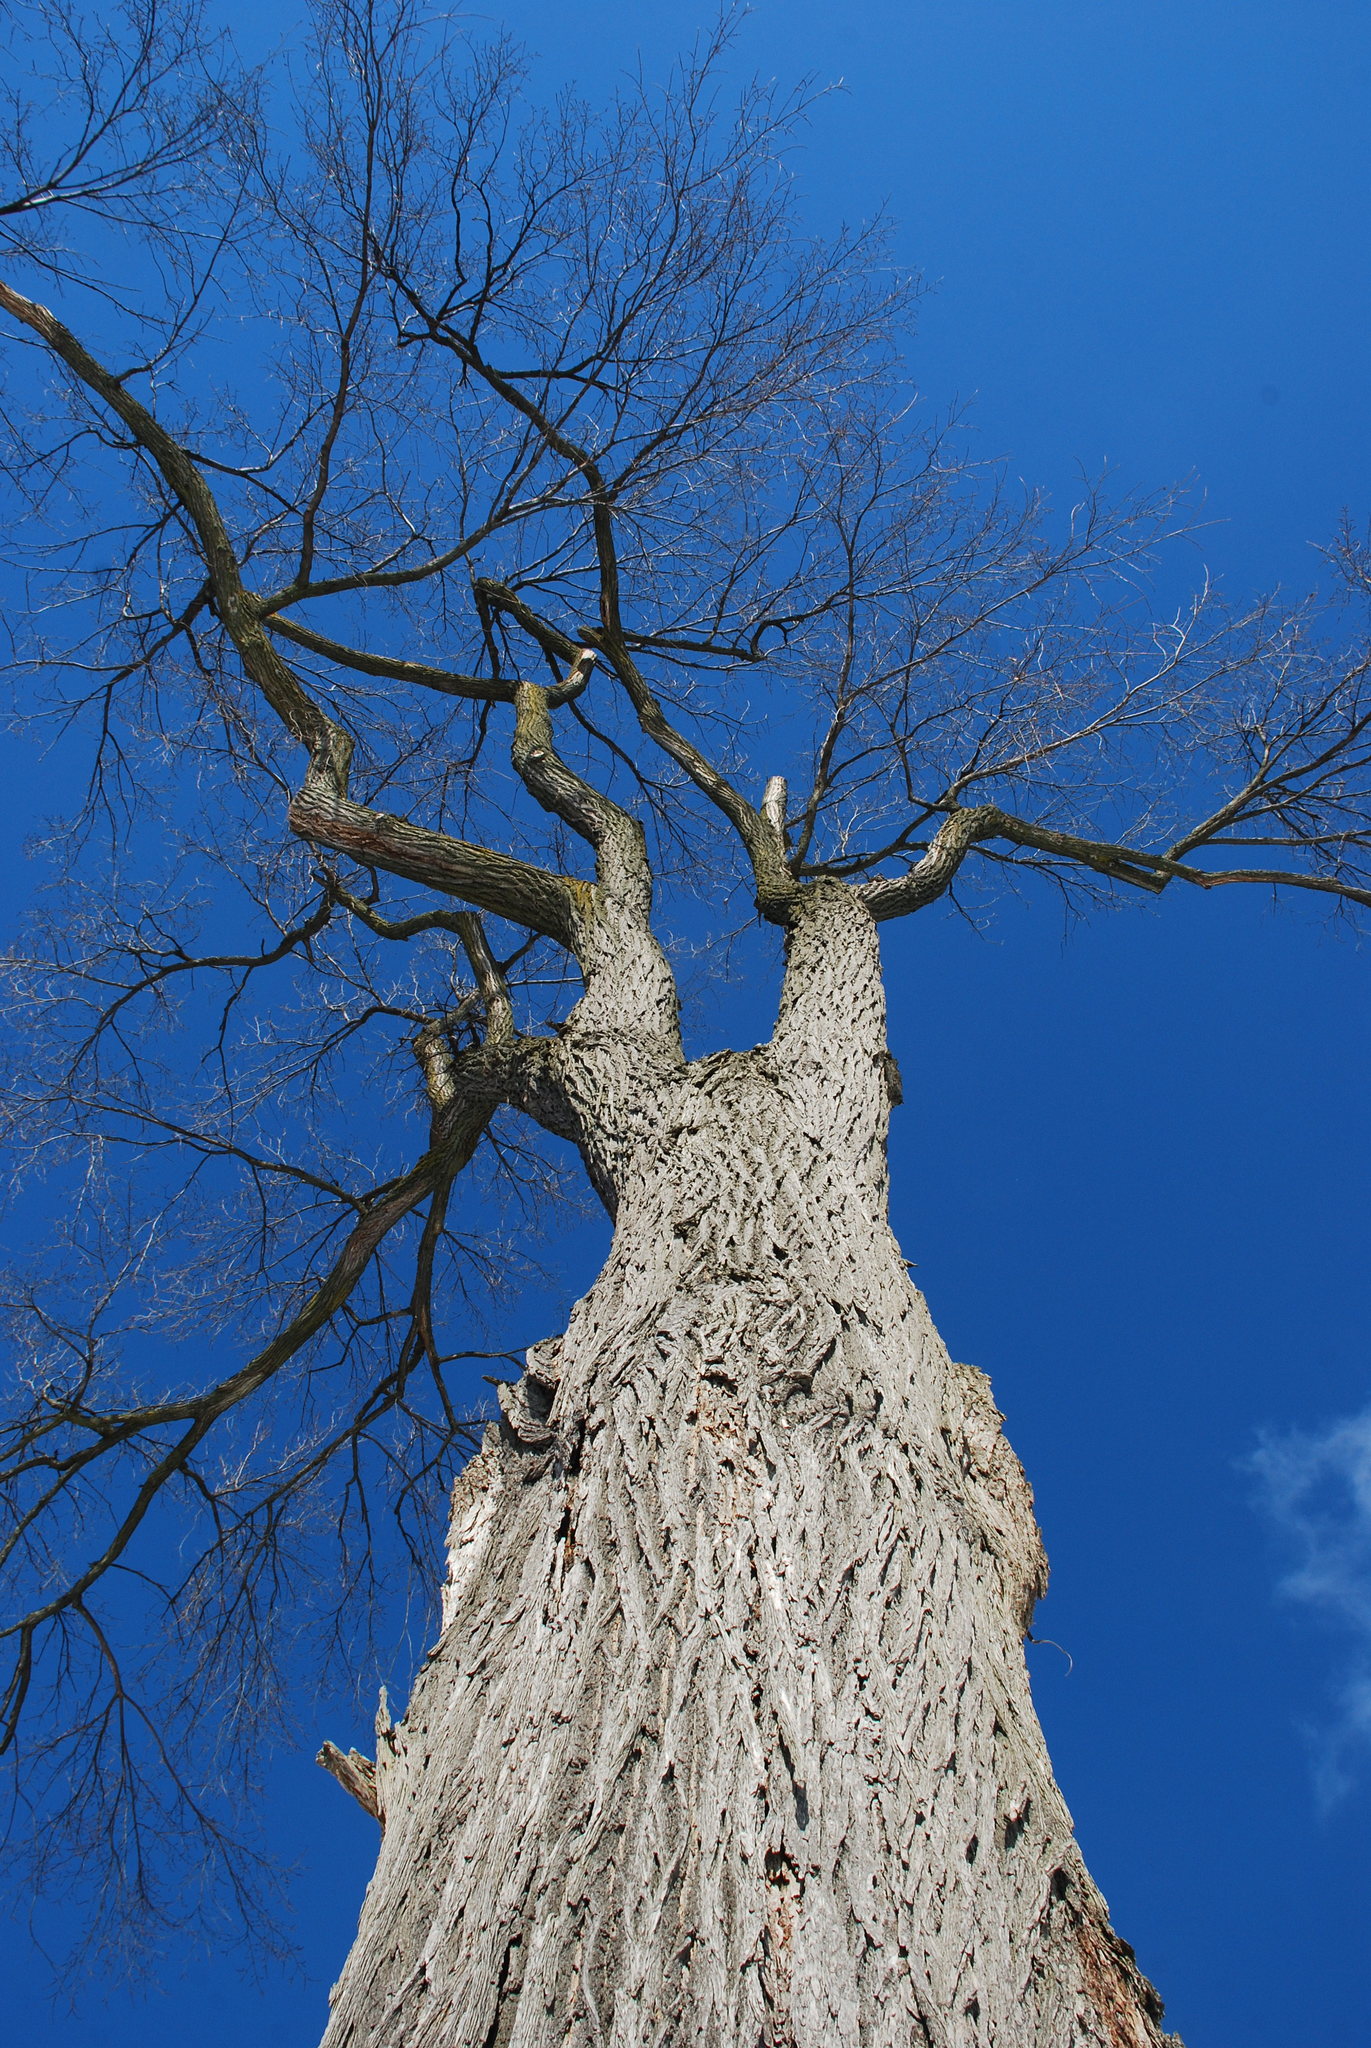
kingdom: Plantae
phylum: Tracheophyta
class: Magnoliopsida
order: Rosales
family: Ulmaceae
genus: Ulmus
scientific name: Ulmus americana
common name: American elm
